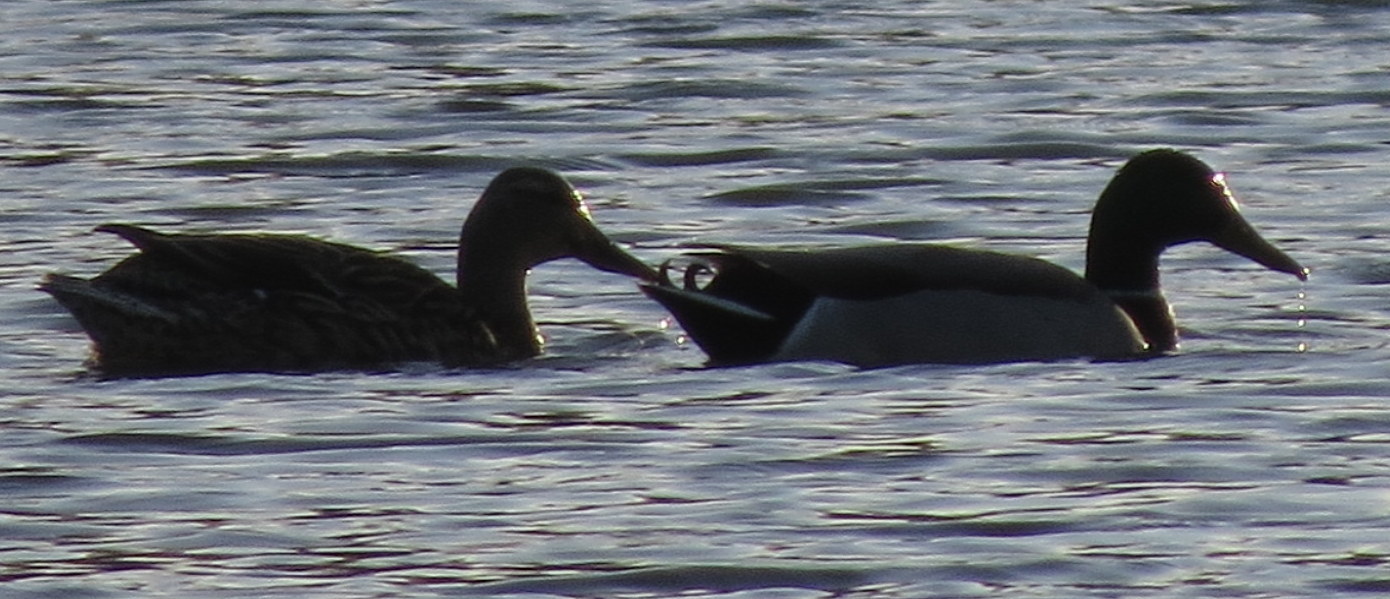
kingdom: Animalia
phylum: Chordata
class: Aves
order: Anseriformes
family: Anatidae
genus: Anas
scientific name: Anas platyrhynchos
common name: Mallard
